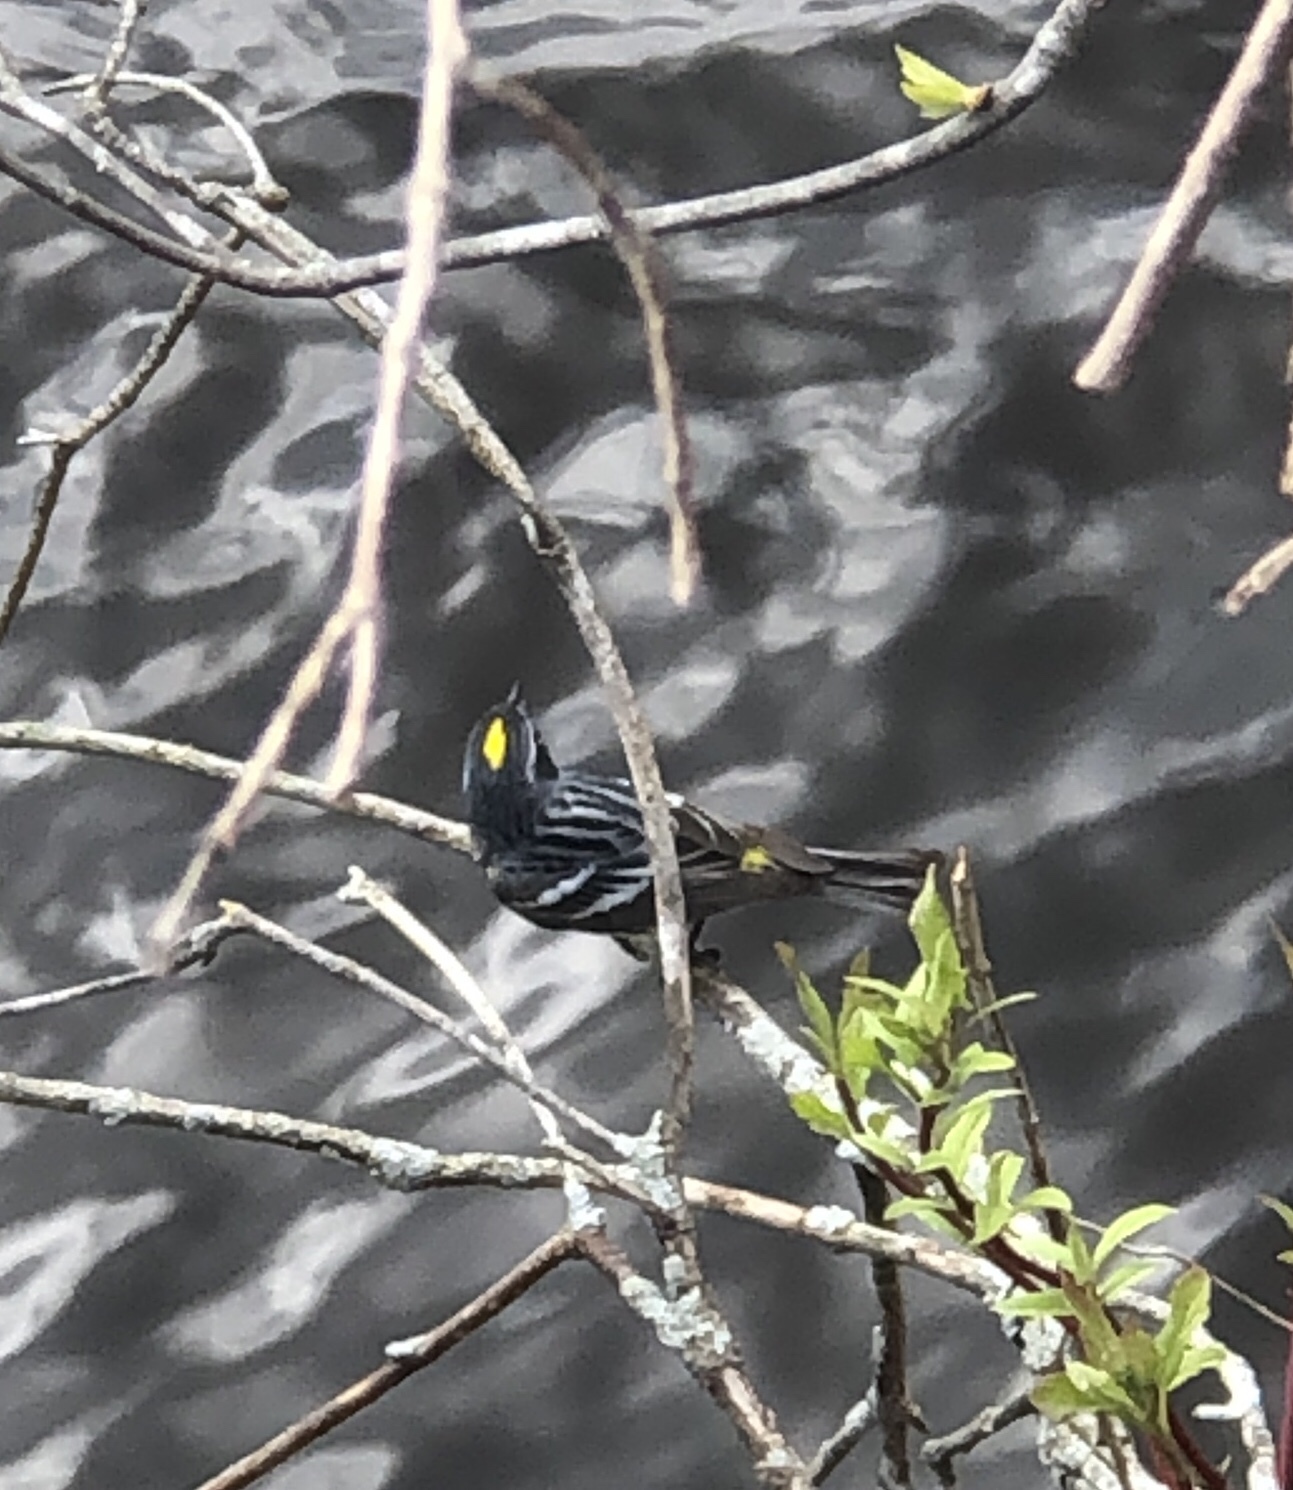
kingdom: Animalia
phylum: Chordata
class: Aves
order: Passeriformes
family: Parulidae
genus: Setophaga
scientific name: Setophaga coronata
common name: Myrtle warbler
